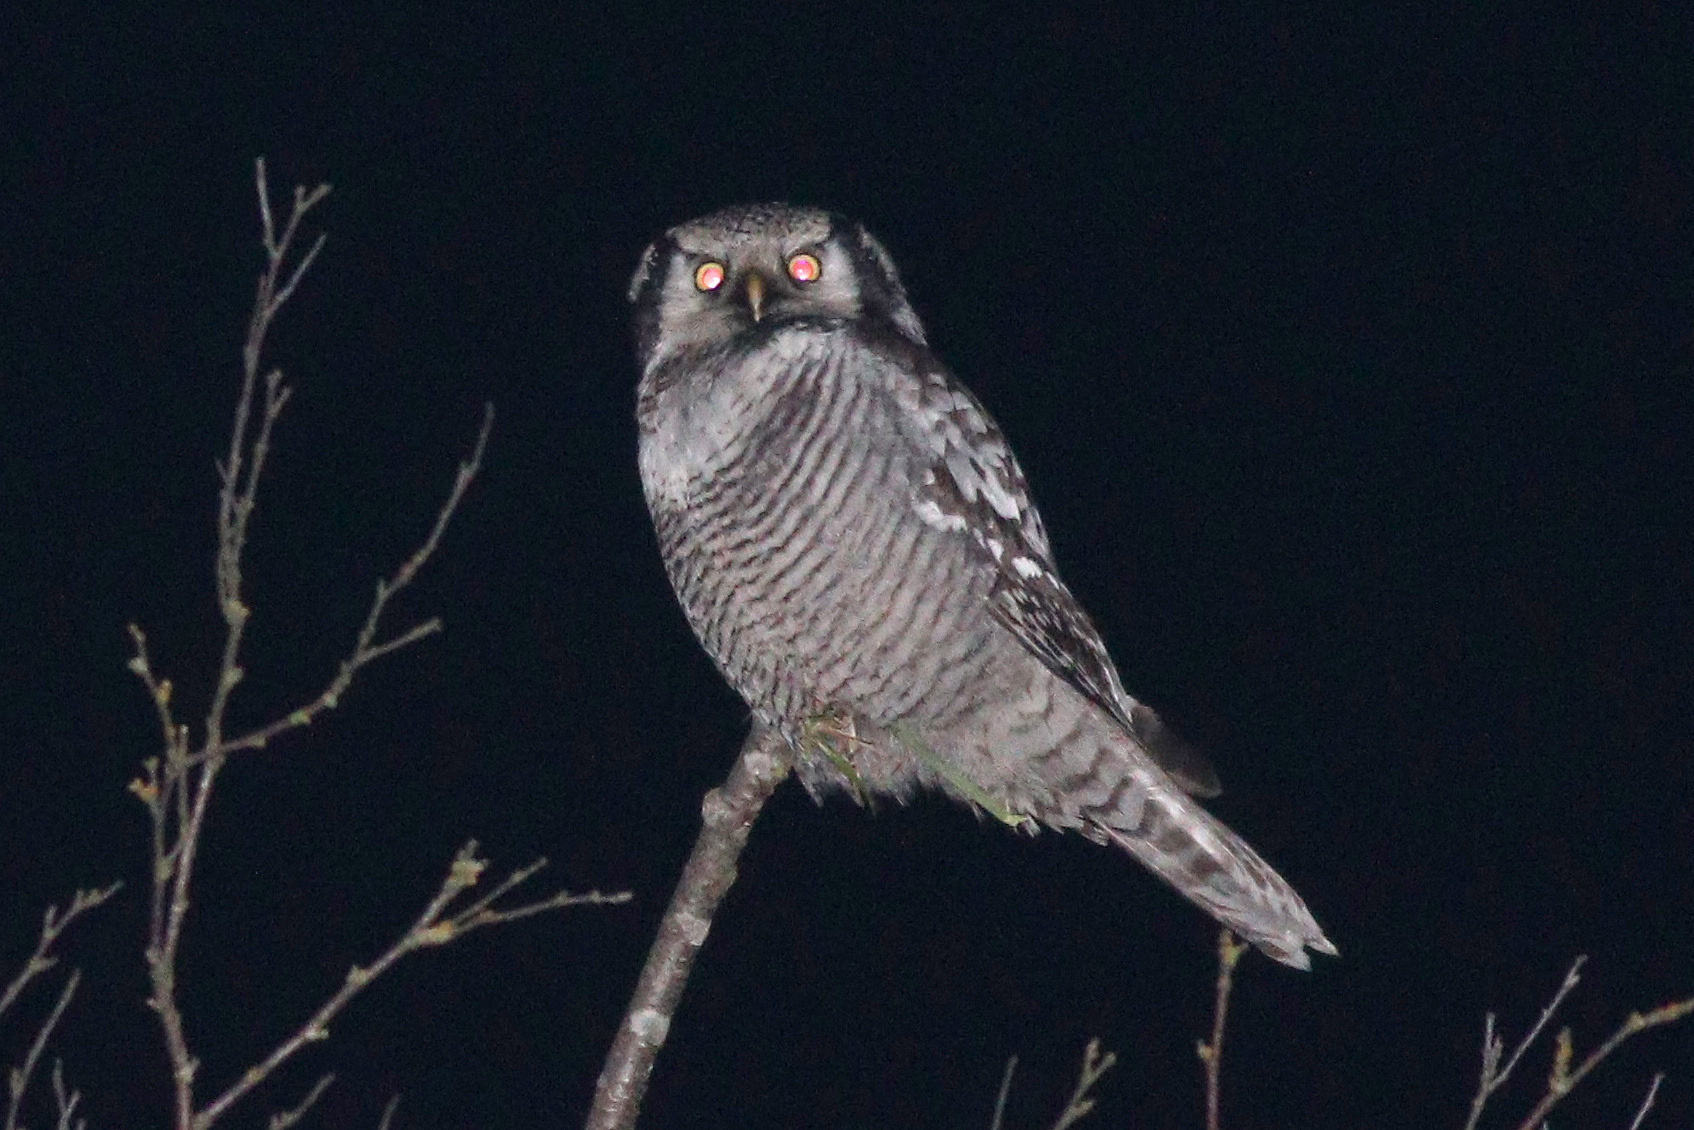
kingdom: Animalia
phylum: Chordata
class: Aves
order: Strigiformes
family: Strigidae
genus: Surnia
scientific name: Surnia ulula
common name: Northern hawk-owl
